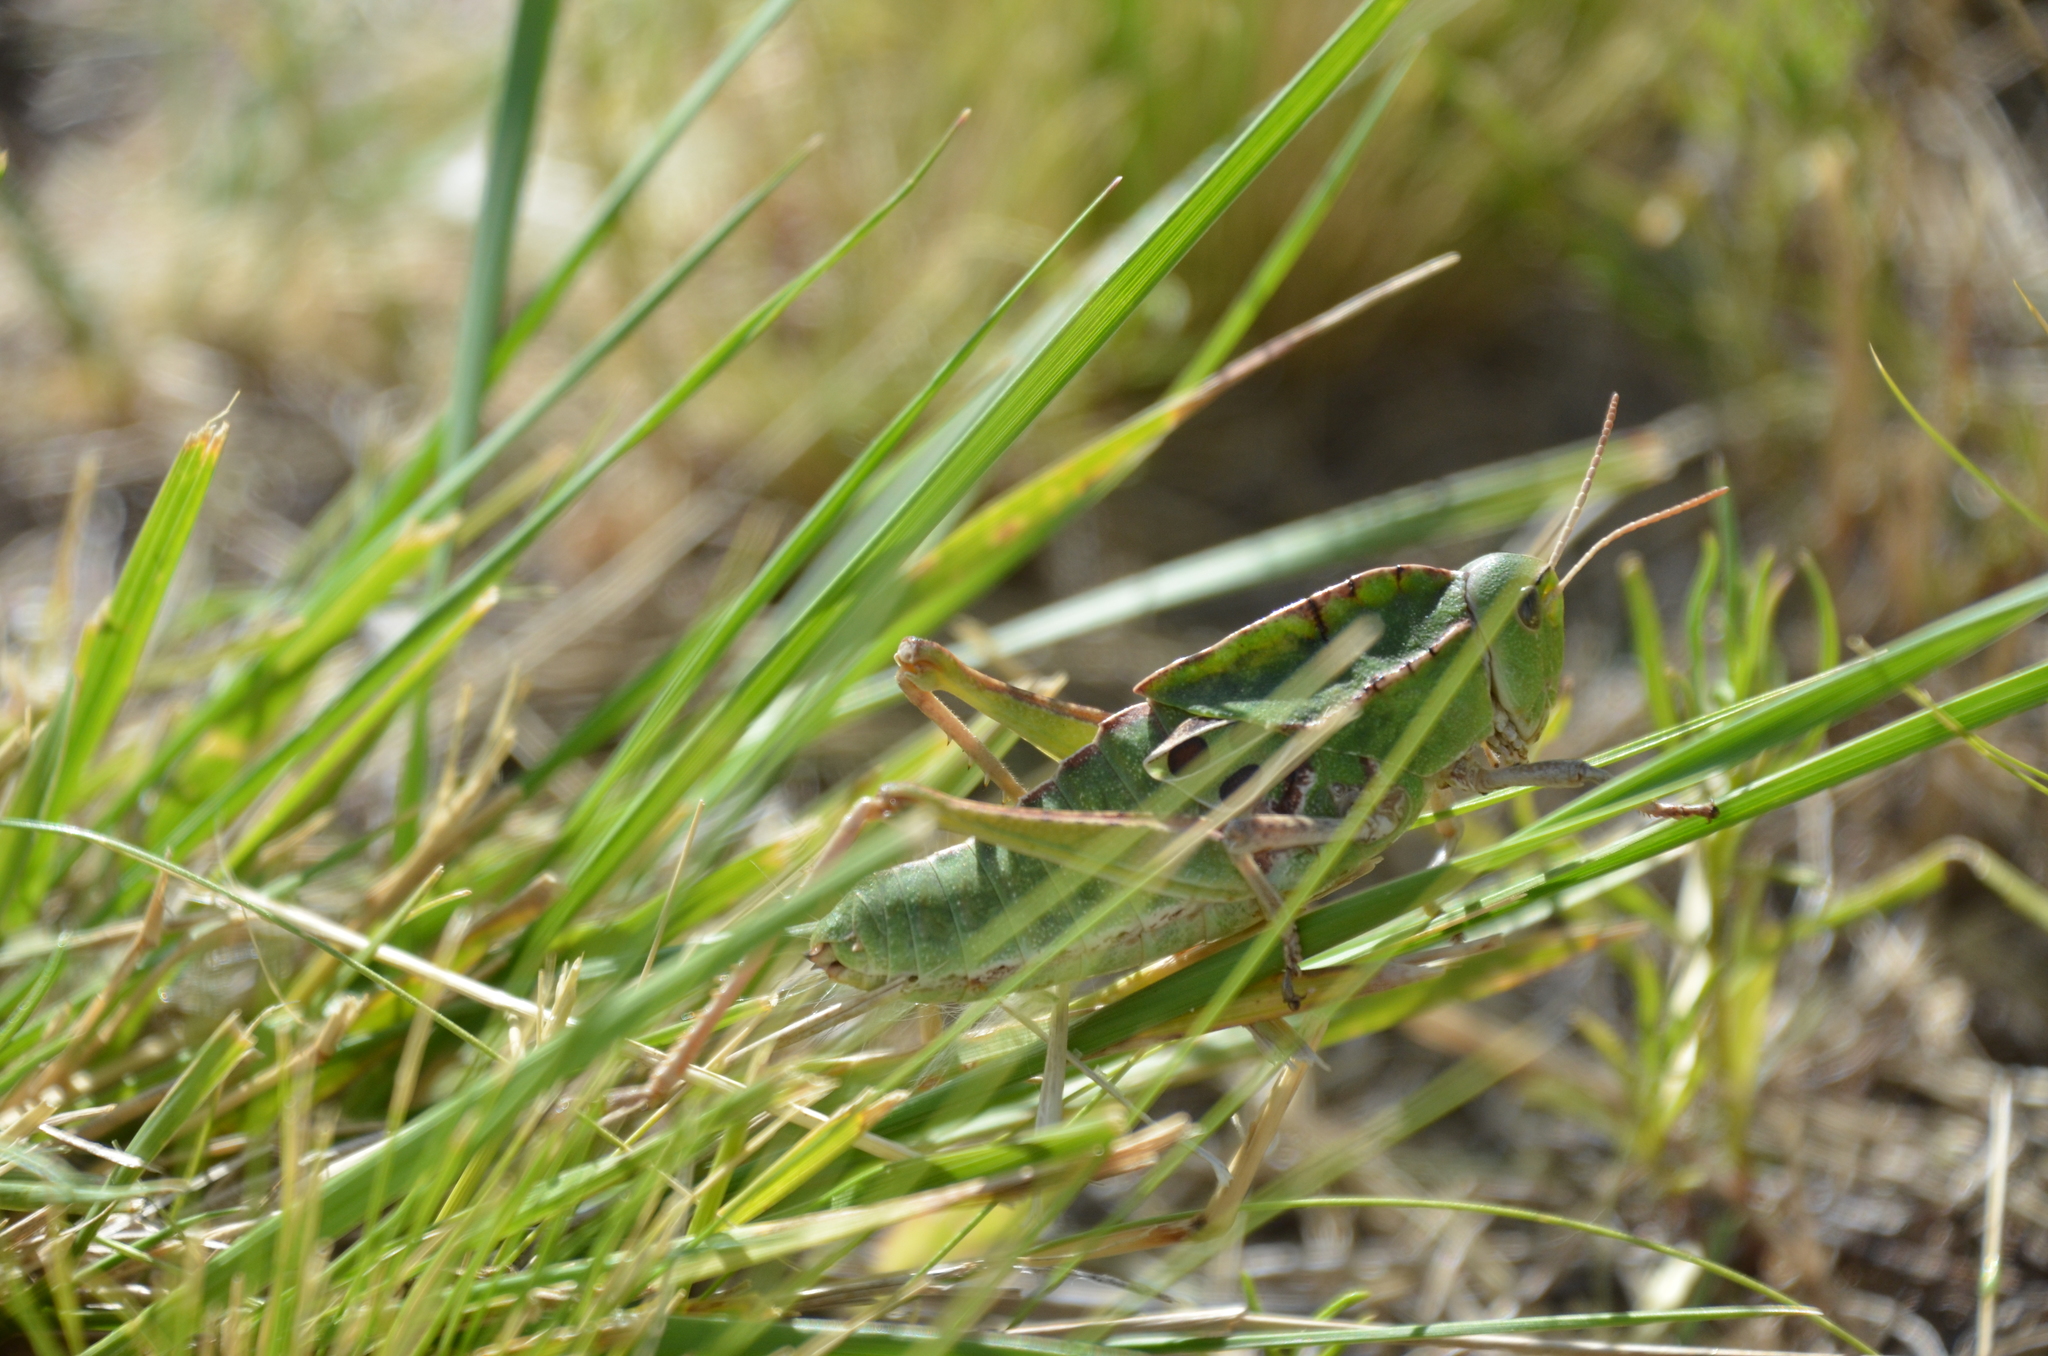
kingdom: Animalia
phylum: Arthropoda
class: Insecta
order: Orthoptera
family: Romaleidae
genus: Alcamenes
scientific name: Alcamenes granulatus
